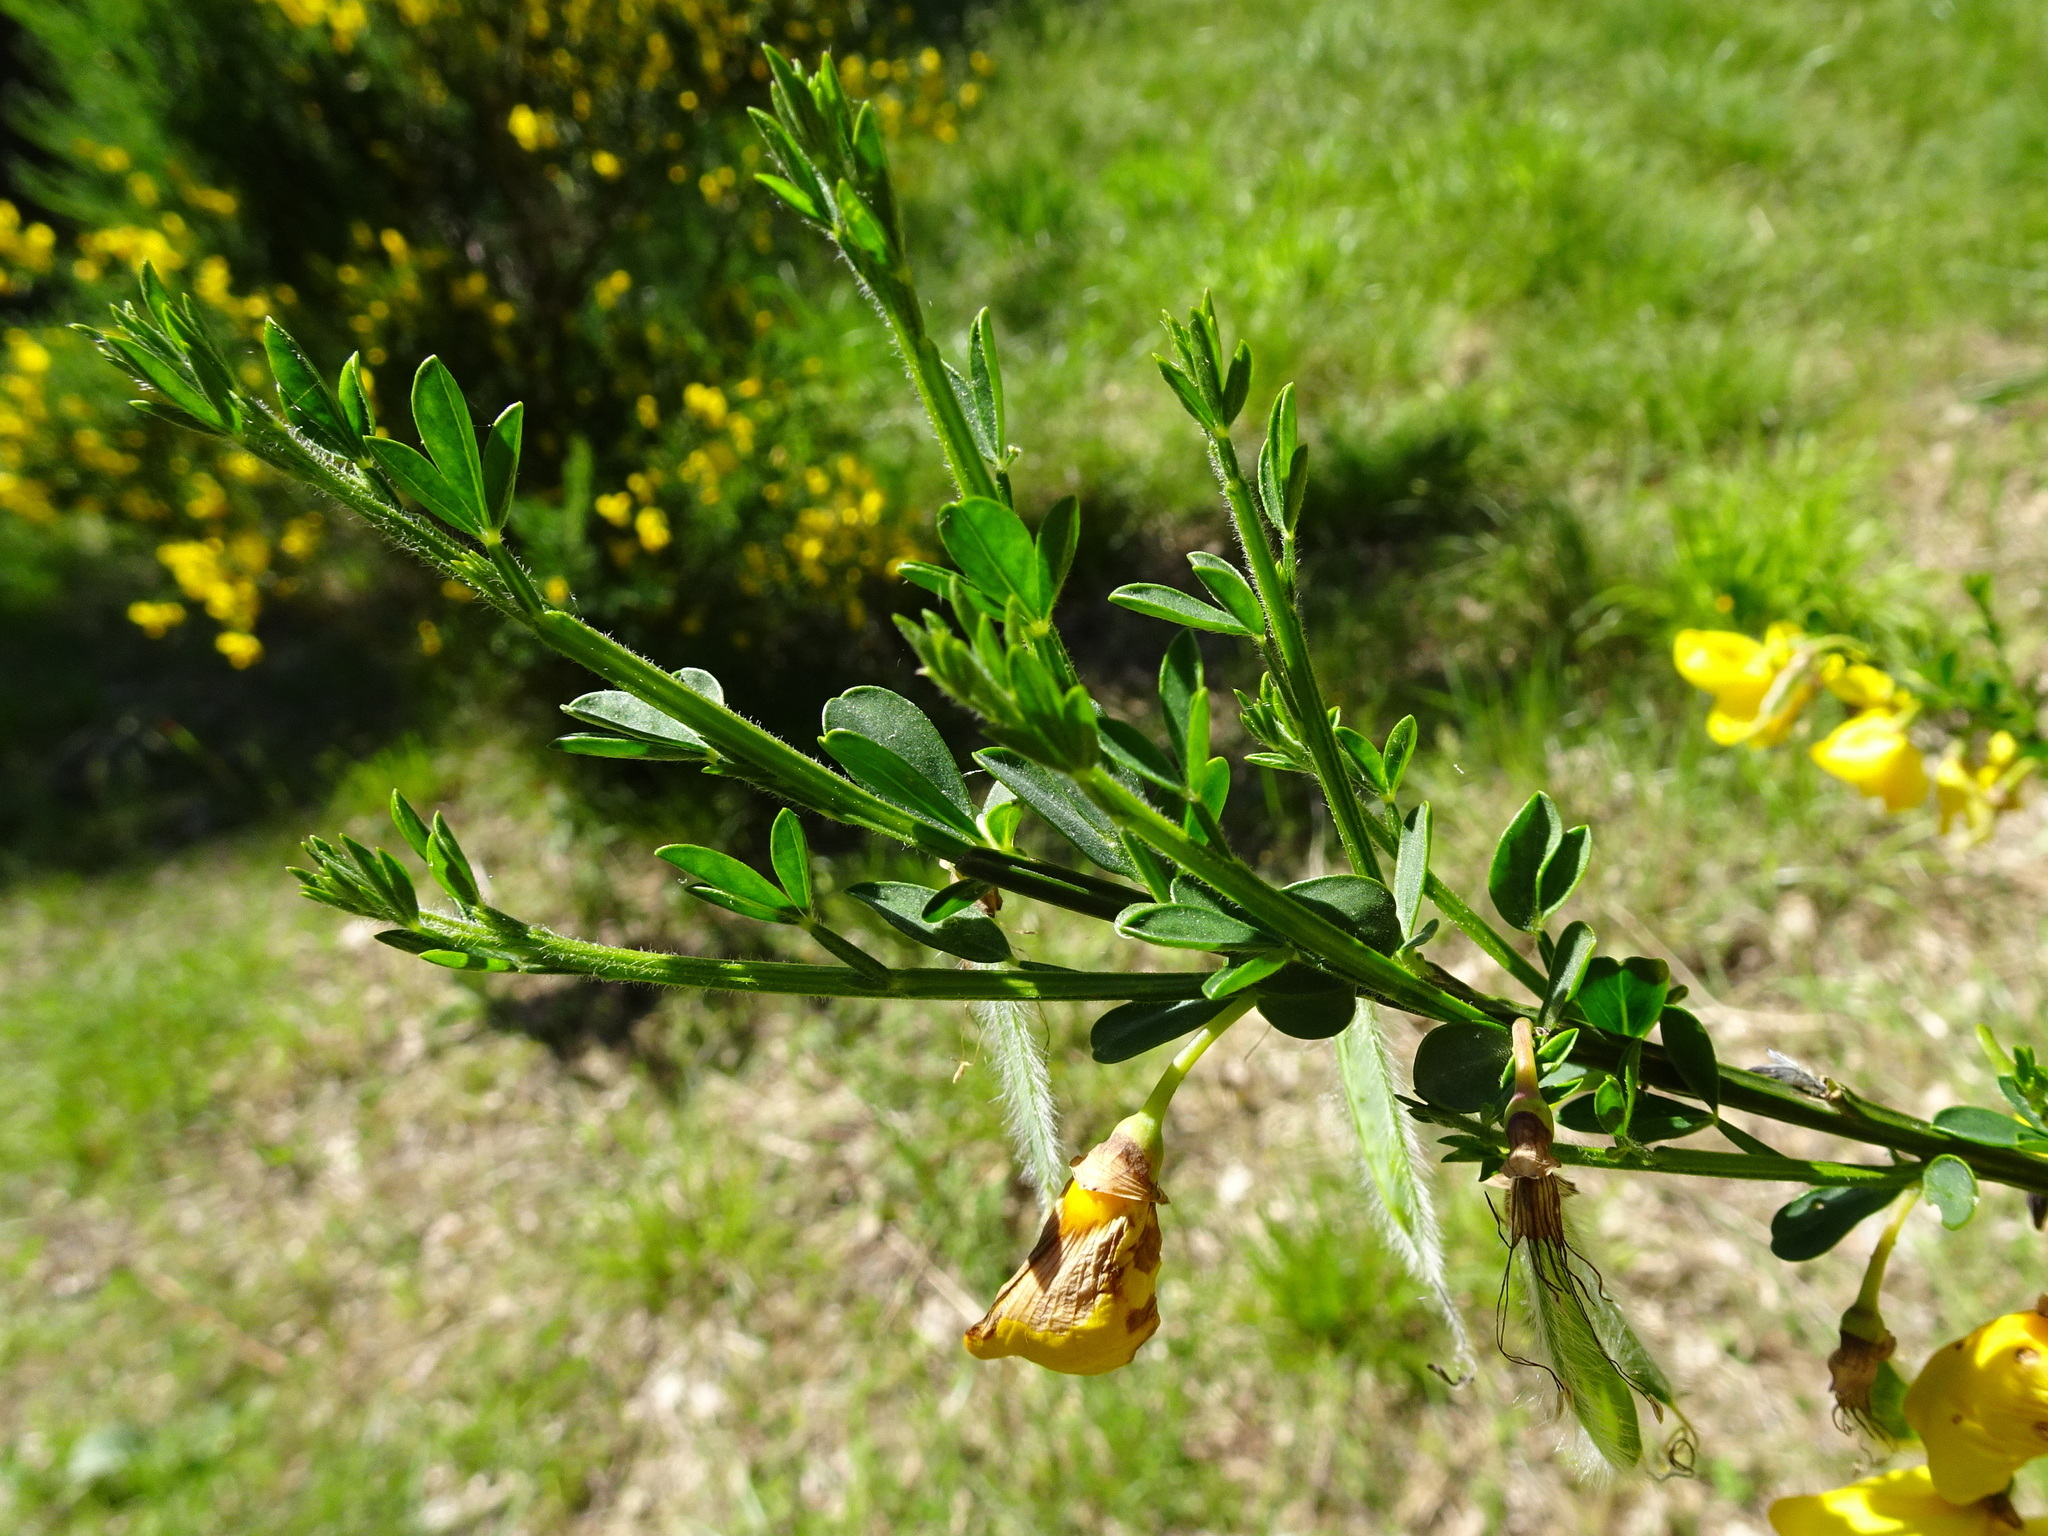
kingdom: Plantae
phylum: Tracheophyta
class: Magnoliopsida
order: Fabales
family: Fabaceae
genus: Cytisus
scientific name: Cytisus scoparius
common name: Scotch broom
